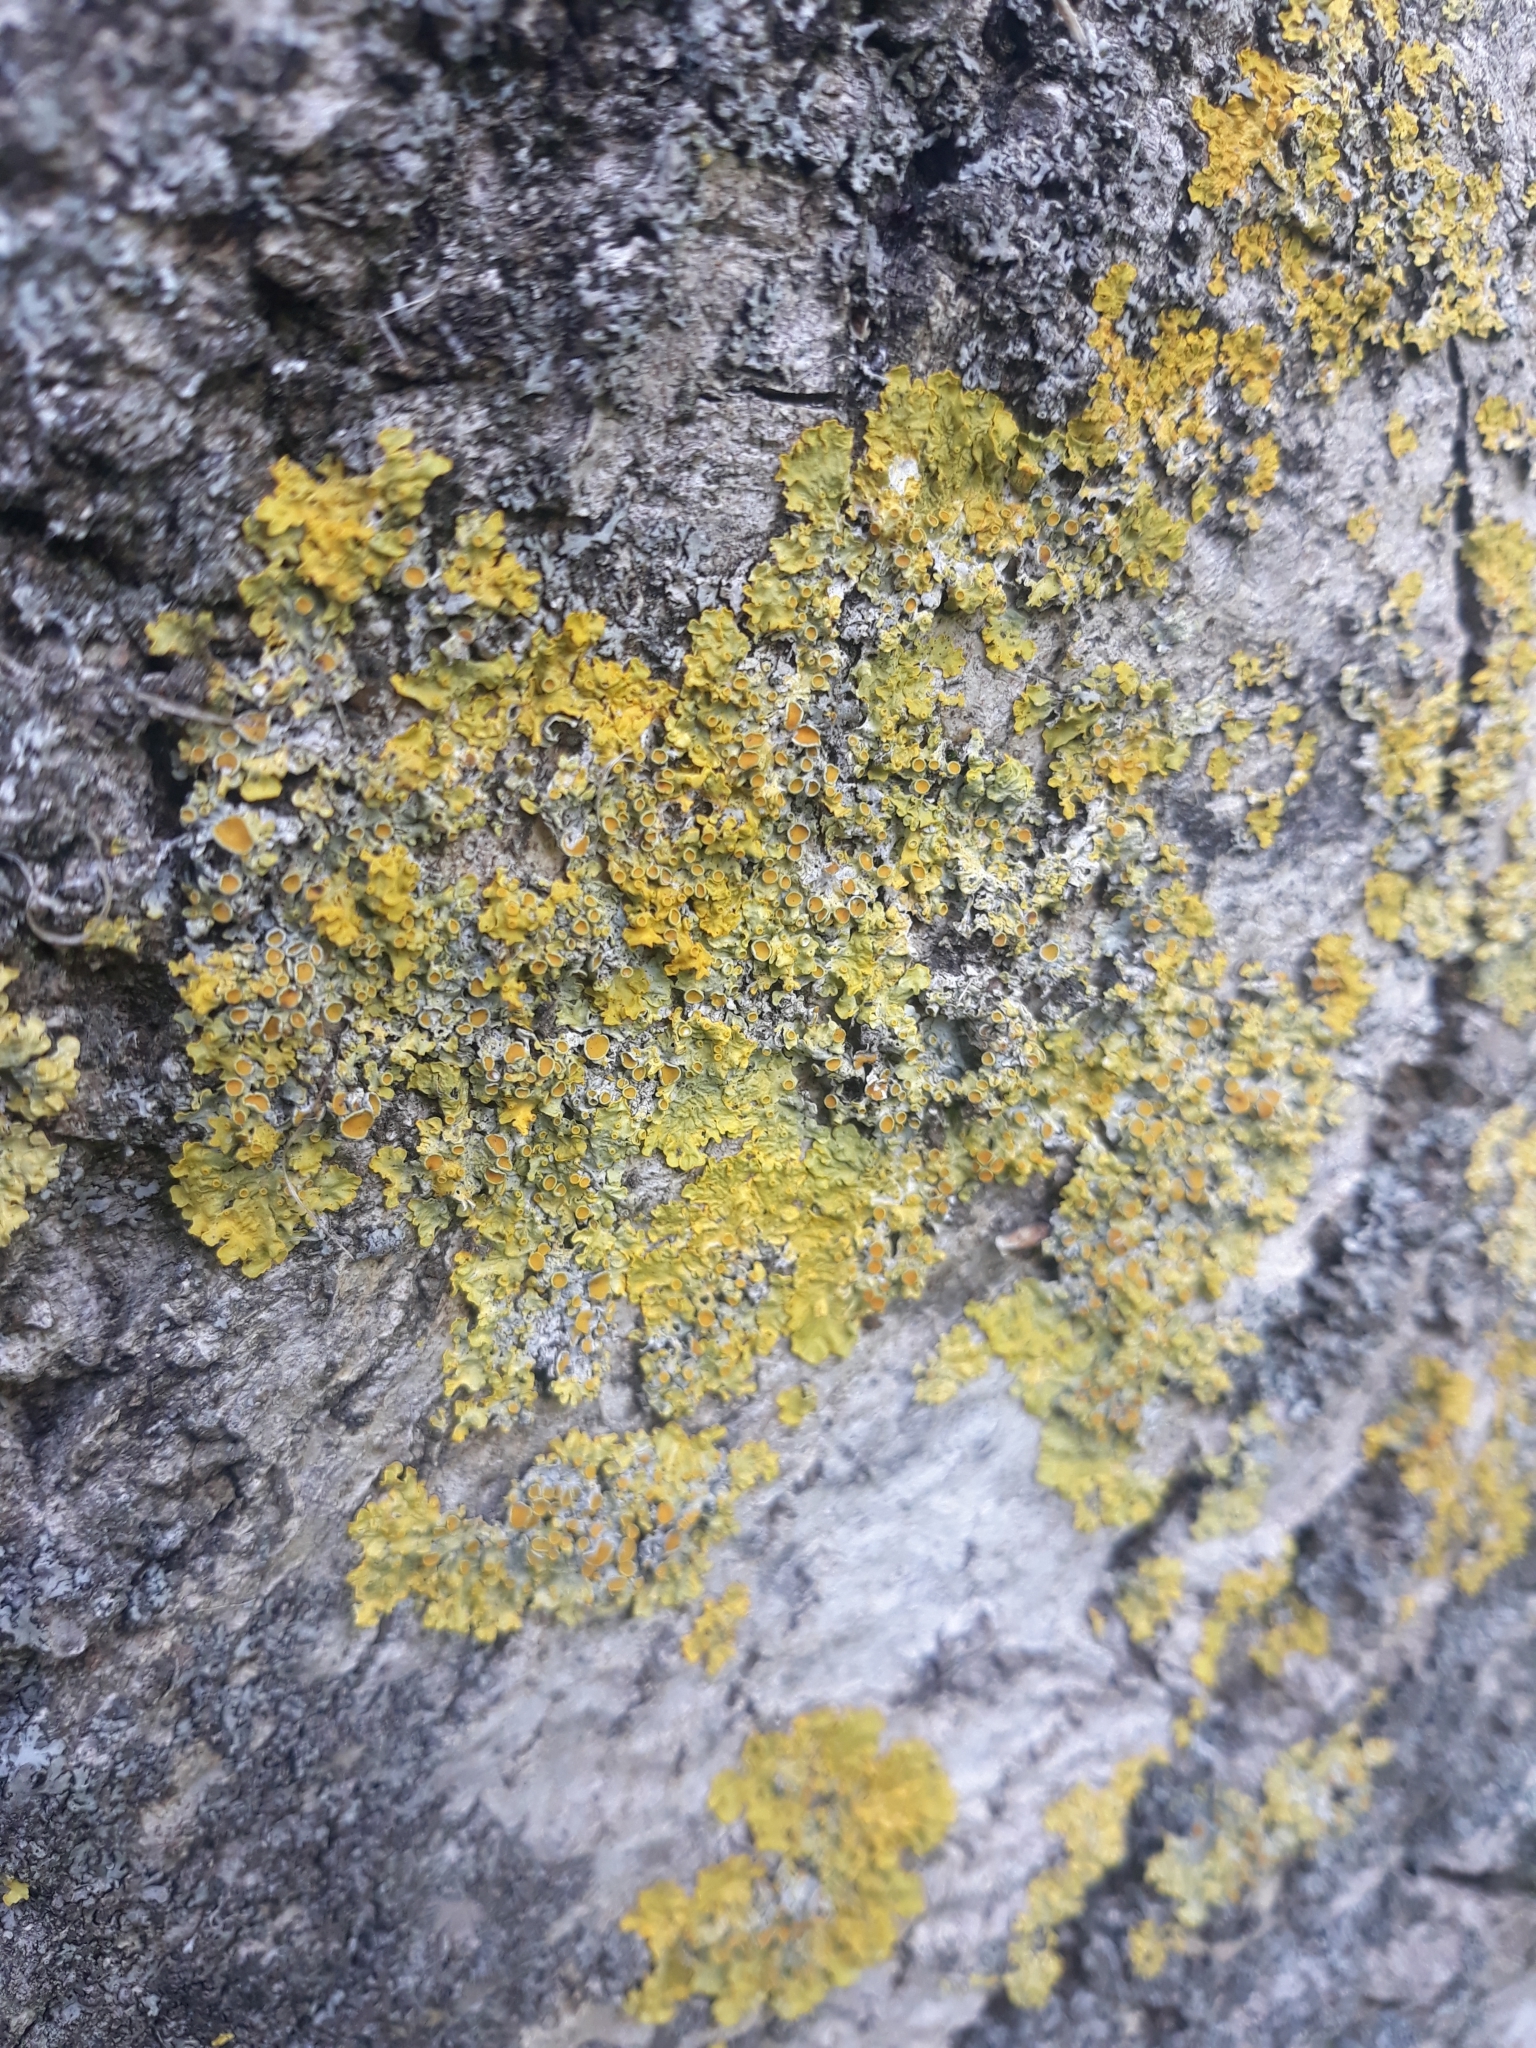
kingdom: Fungi
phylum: Ascomycota
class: Lecanoromycetes
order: Teloschistales
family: Teloschistaceae
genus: Xanthoria
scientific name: Xanthoria parietina
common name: Common orange lichen
